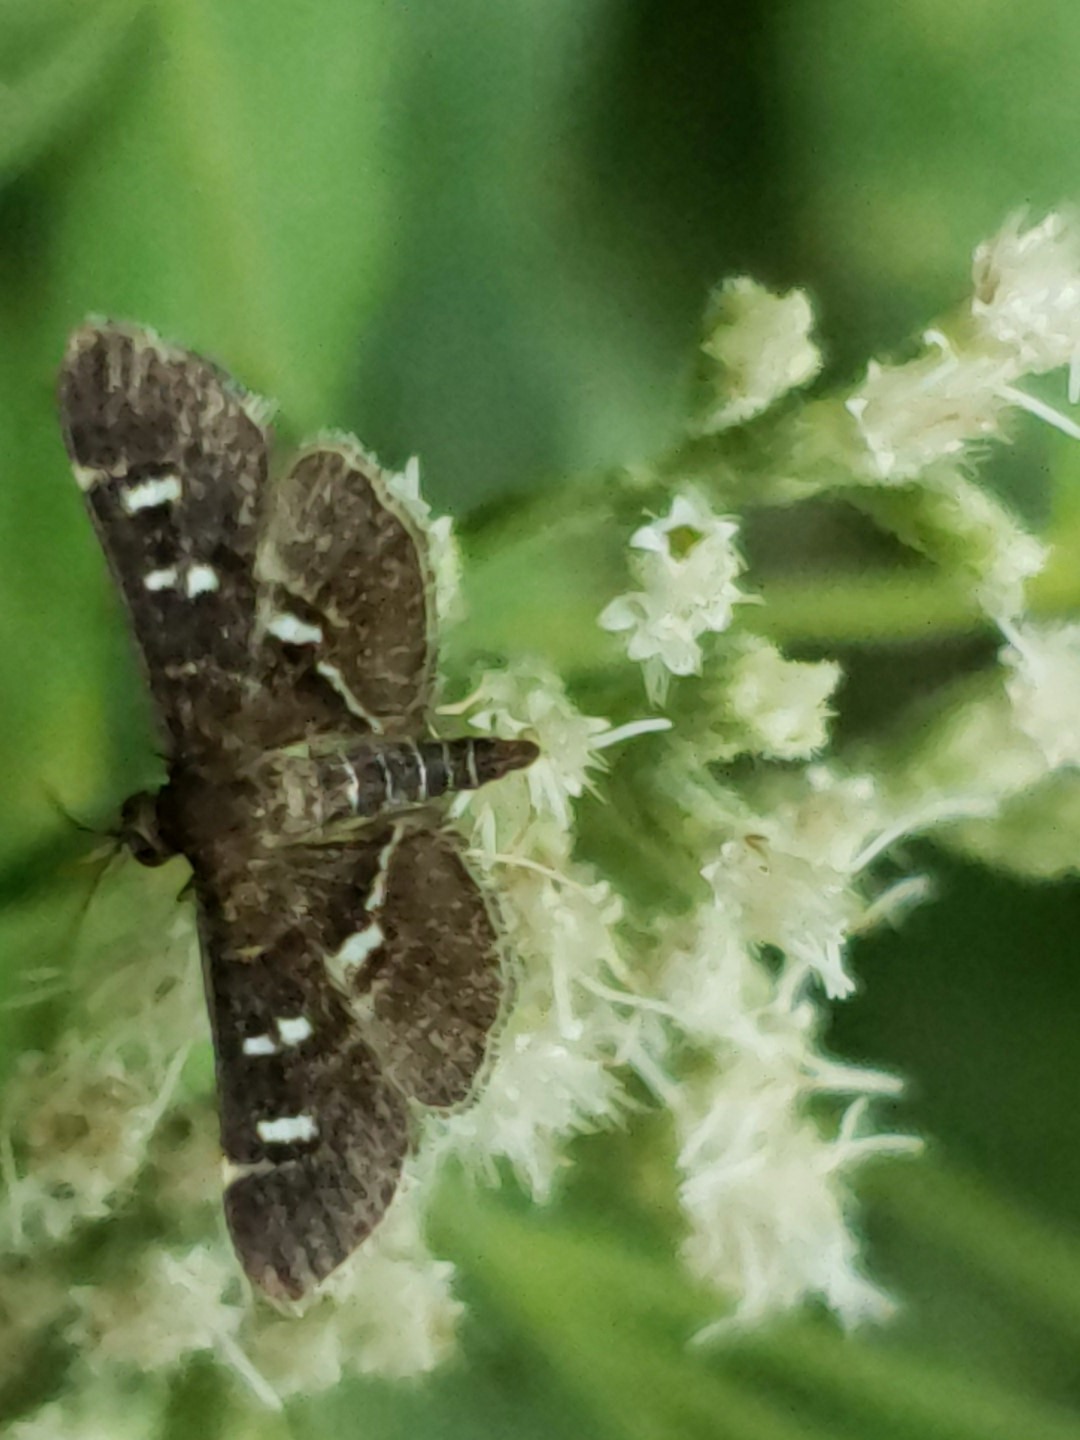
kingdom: Animalia
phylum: Arthropoda
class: Insecta
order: Lepidoptera
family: Crambidae
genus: Diathrausta
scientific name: Diathrausta
